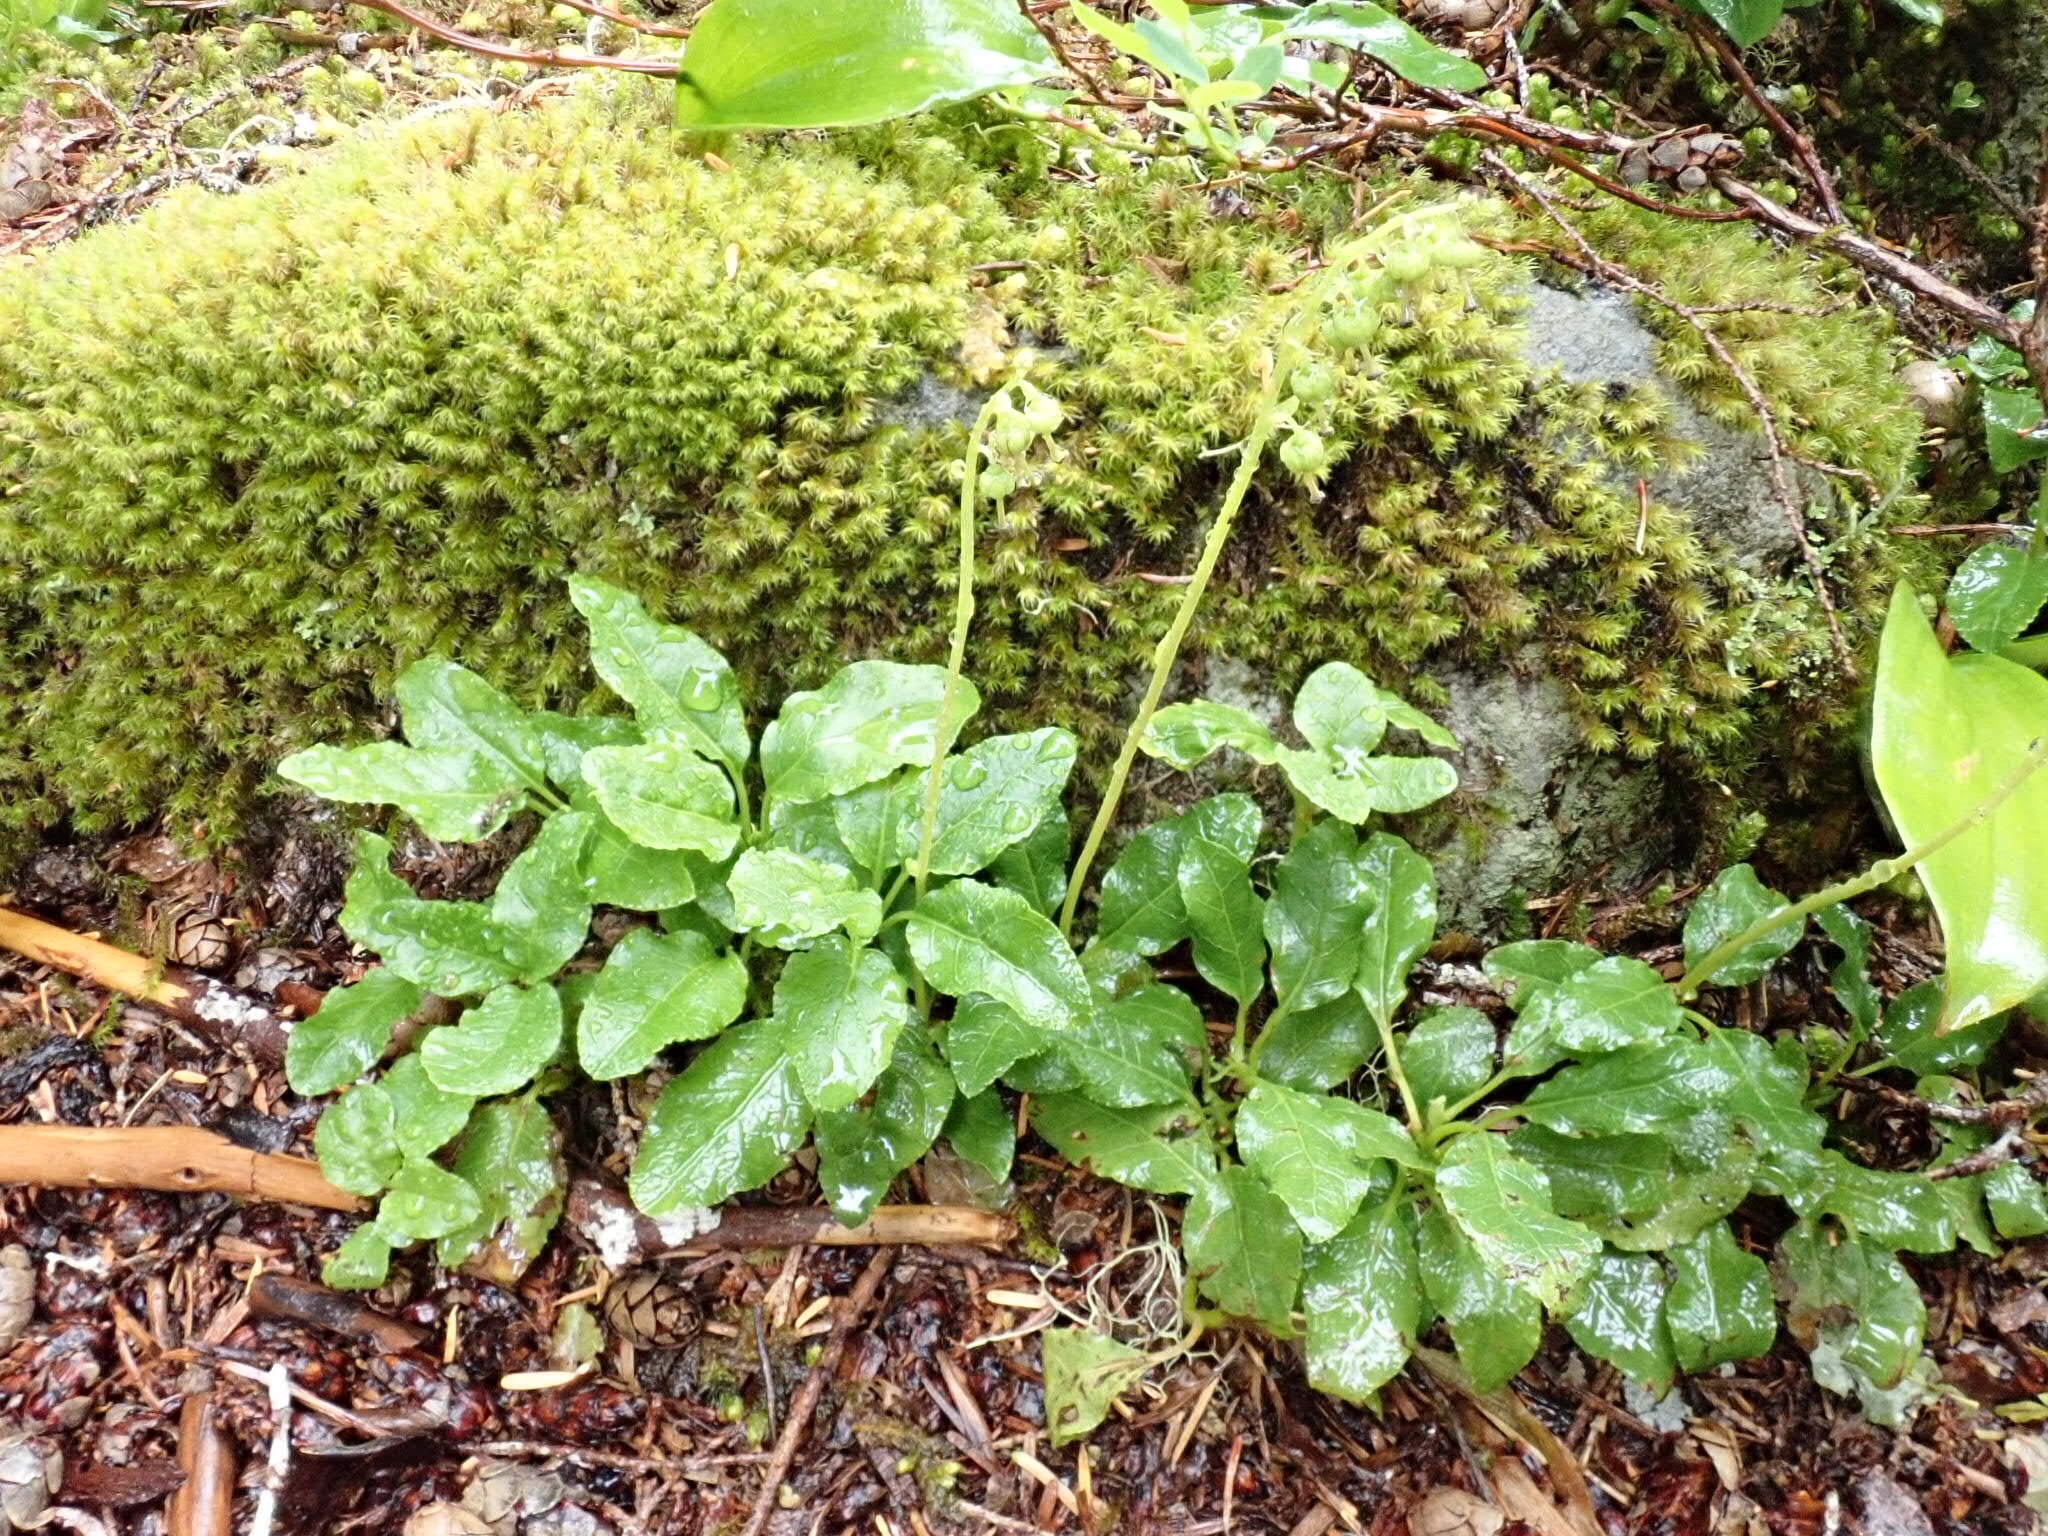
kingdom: Plantae
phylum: Tracheophyta
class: Magnoliopsida
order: Ericales
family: Ericaceae
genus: Orthilia
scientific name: Orthilia secunda
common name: One-sided orthilia
